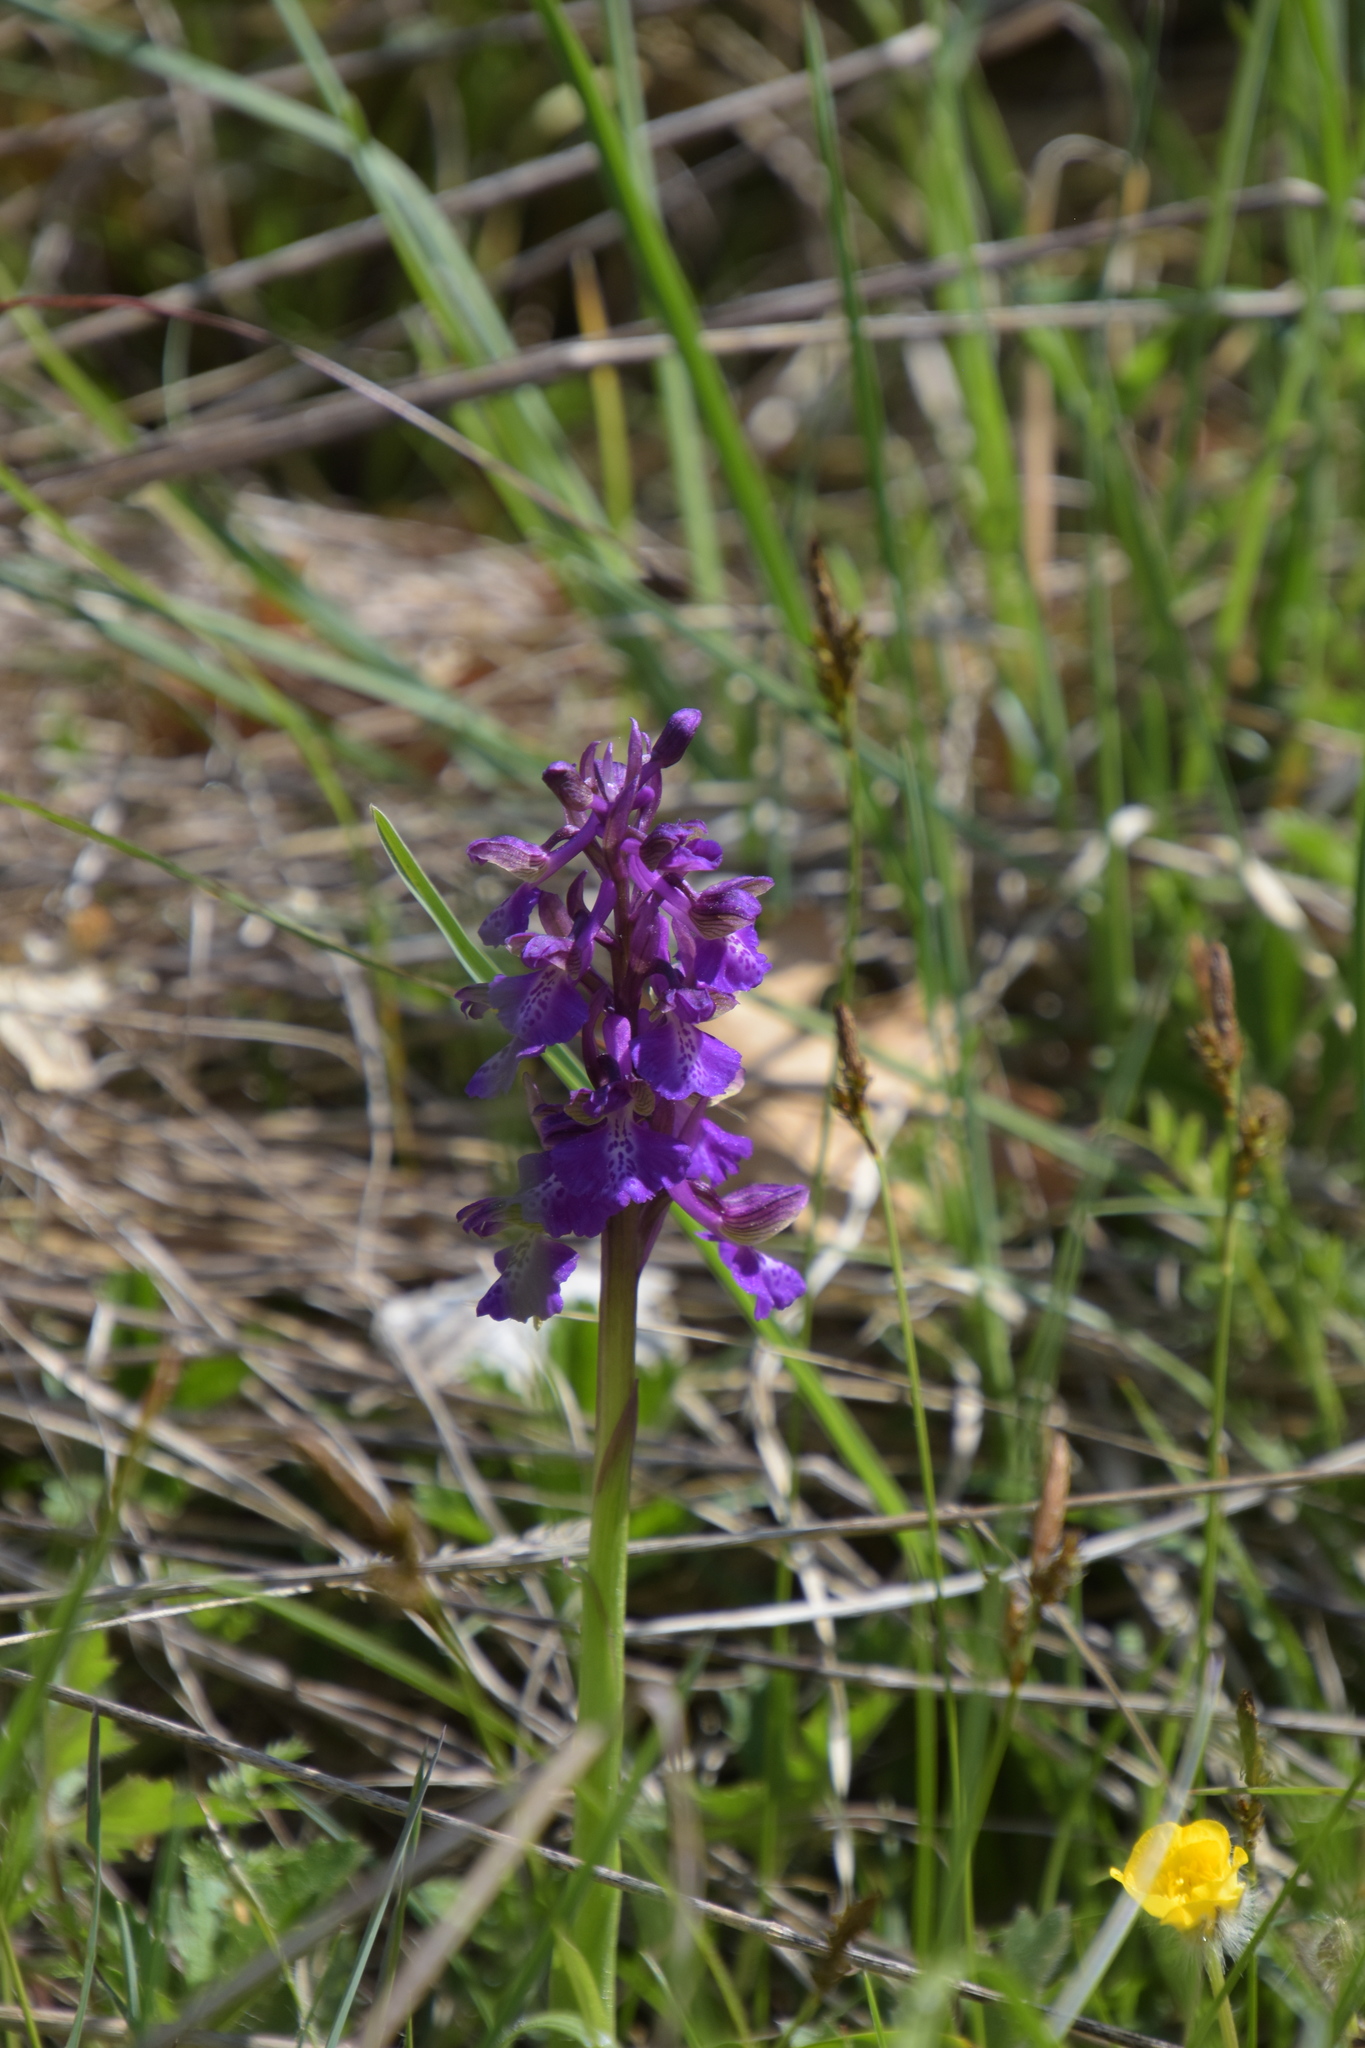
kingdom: Plantae
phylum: Tracheophyta
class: Liliopsida
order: Asparagales
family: Orchidaceae
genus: Anacamptis
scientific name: Anacamptis morio
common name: Green-winged orchid
